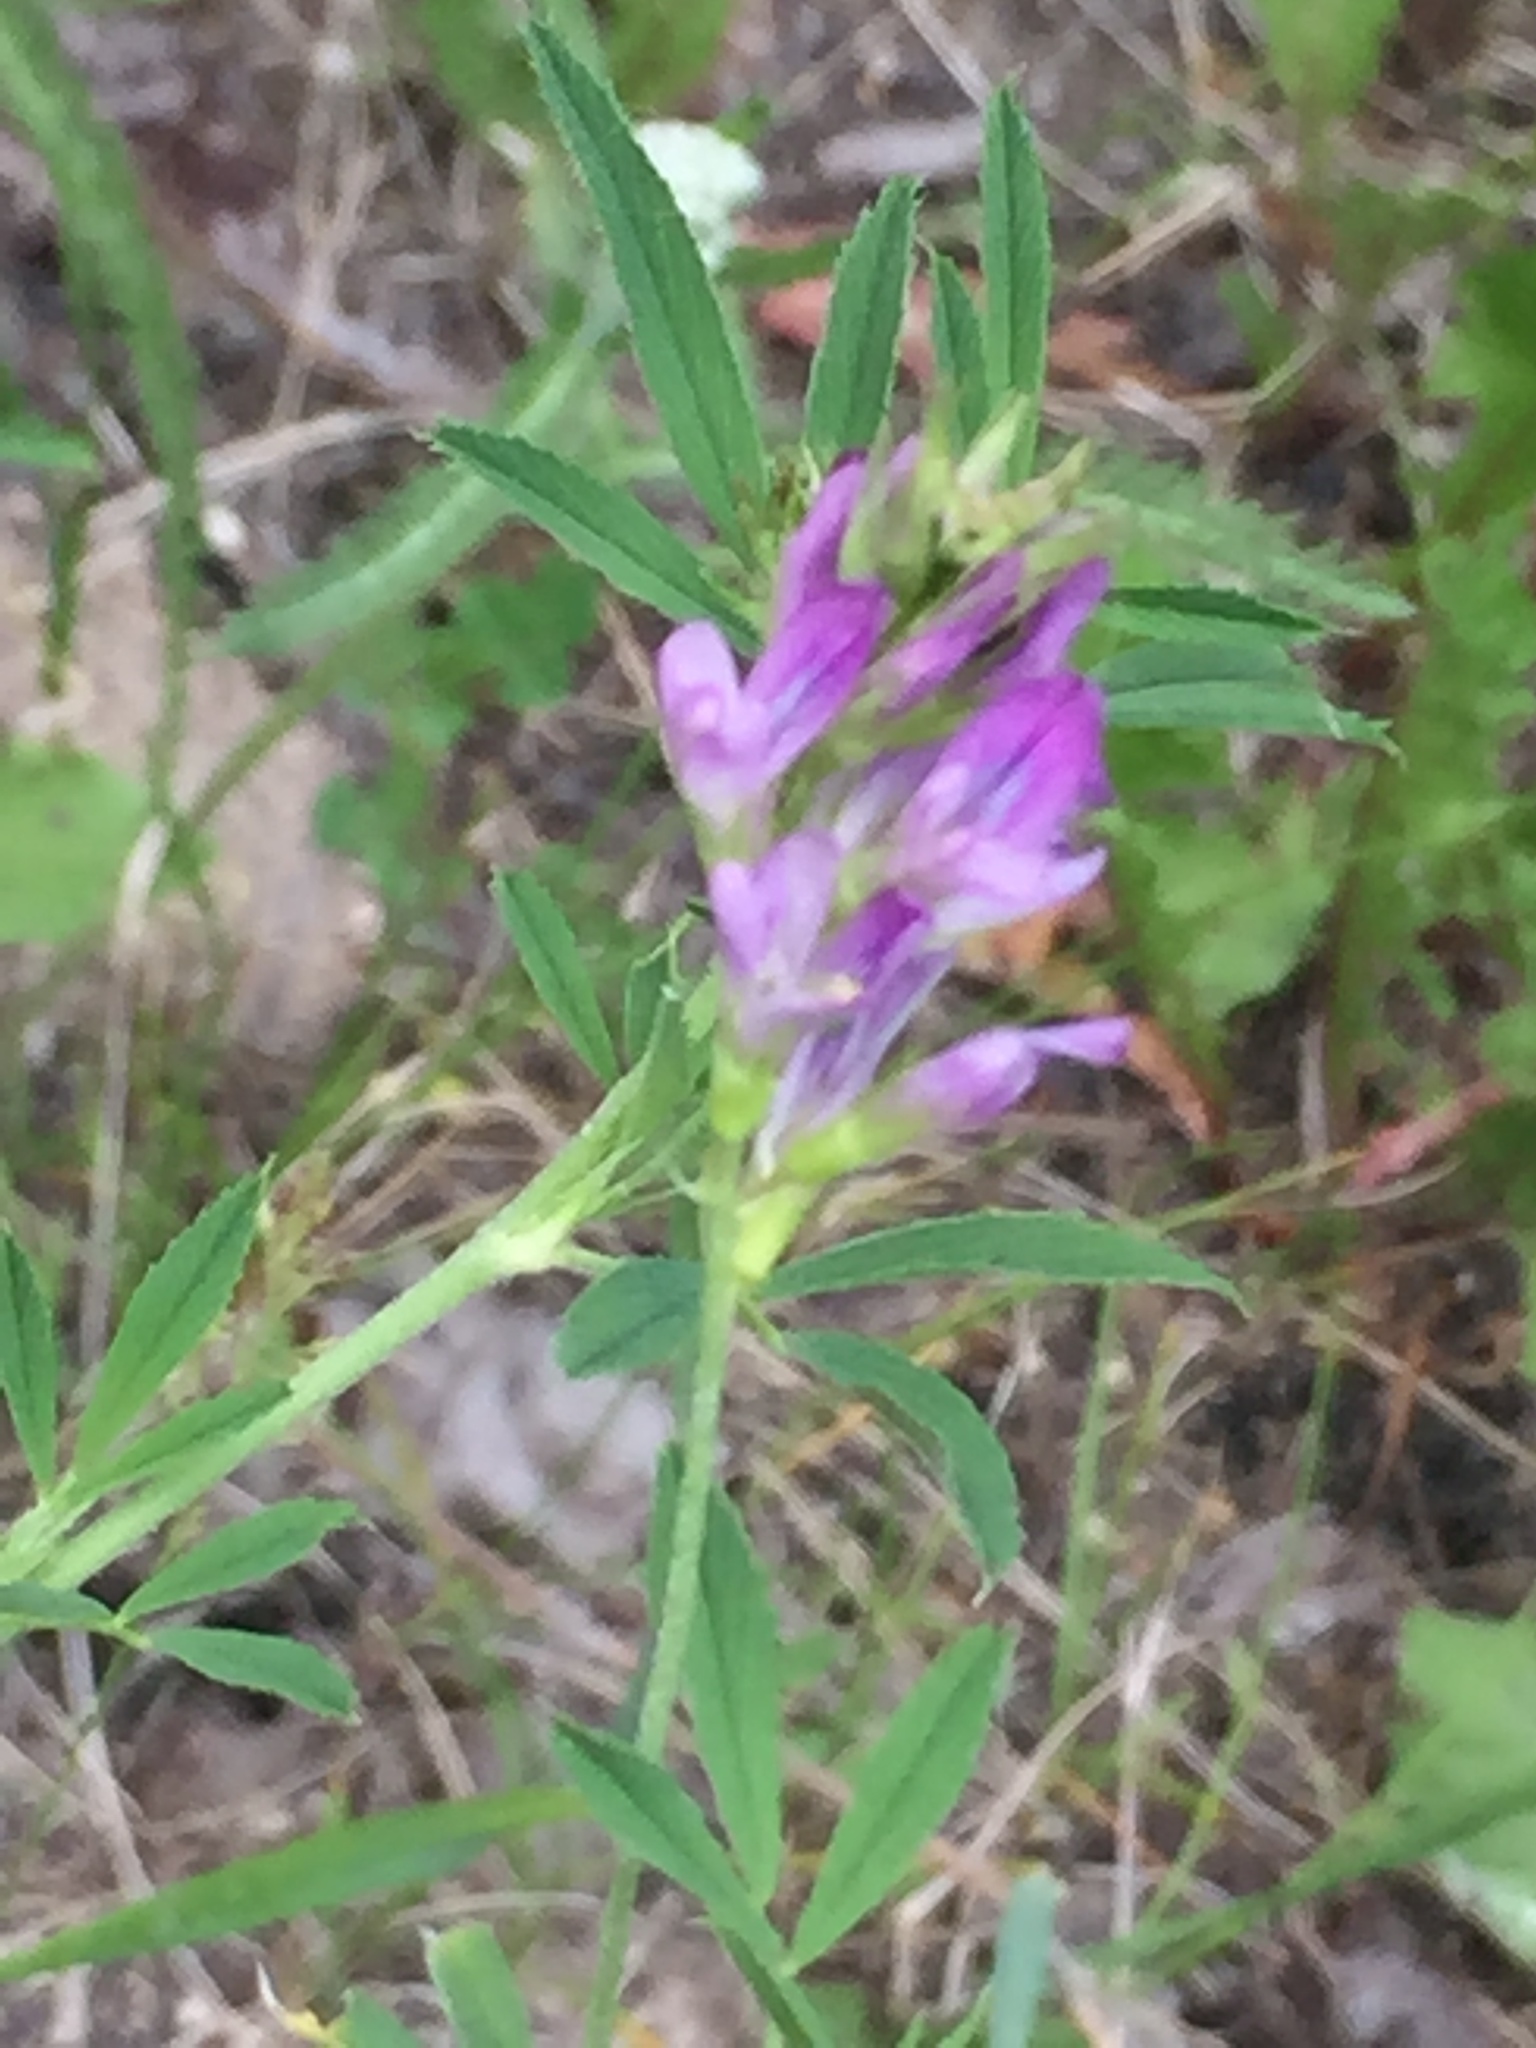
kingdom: Plantae
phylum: Tracheophyta
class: Magnoliopsida
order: Fabales
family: Fabaceae
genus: Medicago
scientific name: Medicago sativa
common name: Alfalfa
